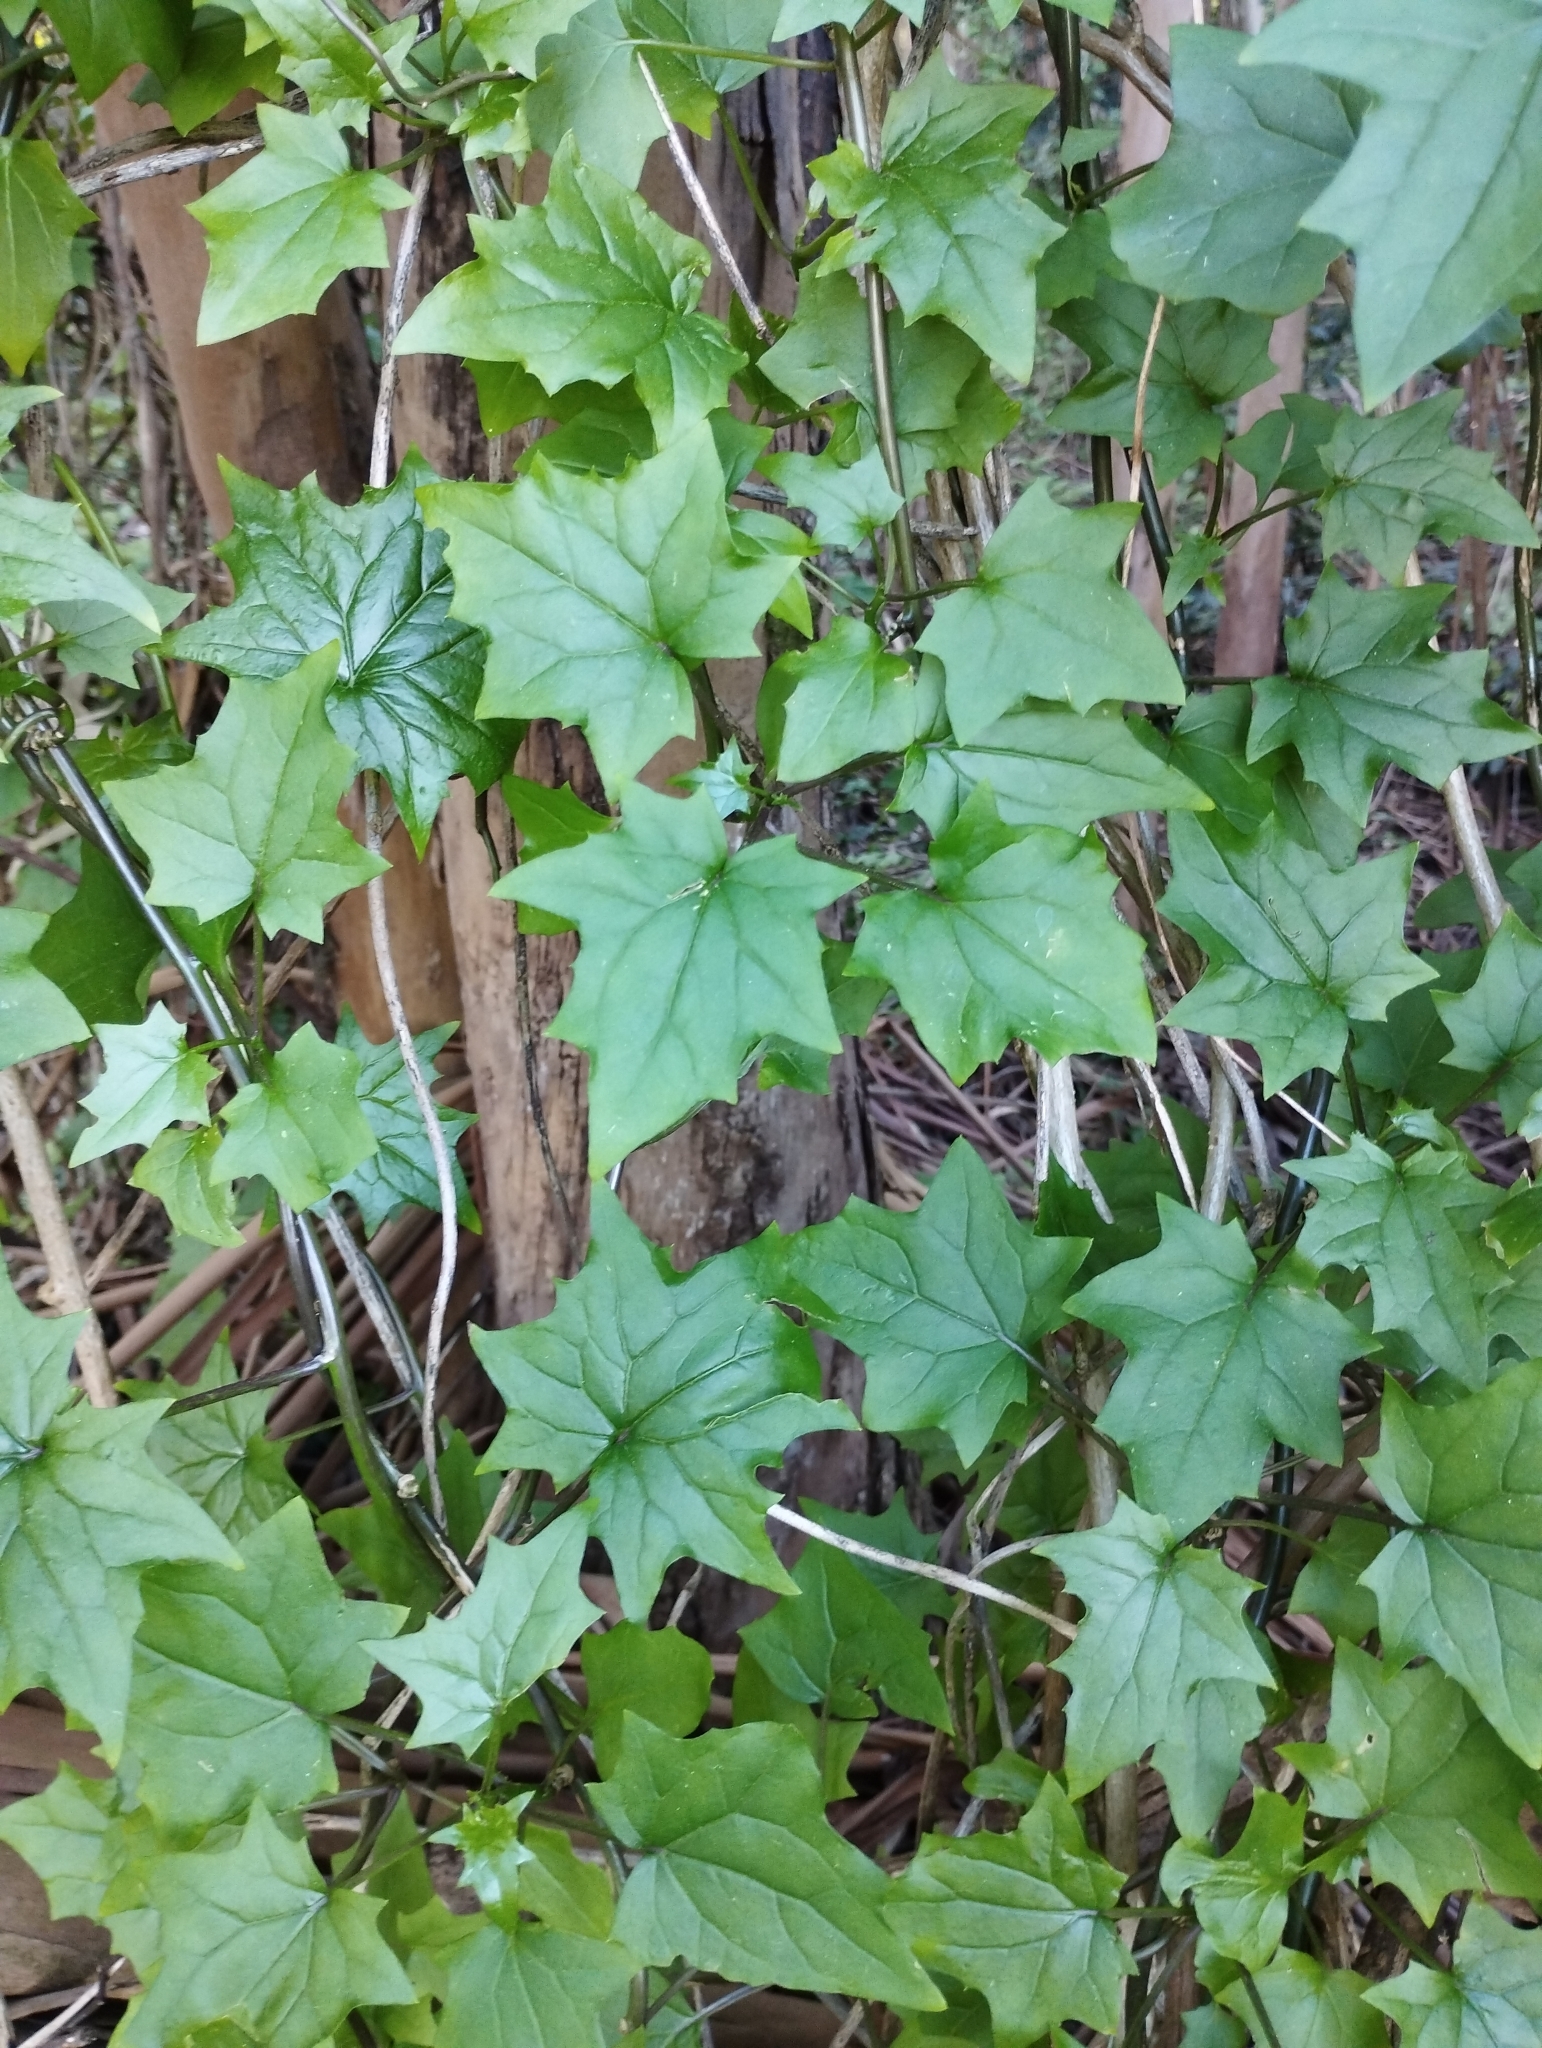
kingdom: Plantae
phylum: Tracheophyta
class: Magnoliopsida
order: Asterales
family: Asteraceae
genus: Delairea
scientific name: Delairea odorata
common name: Cape-ivy
